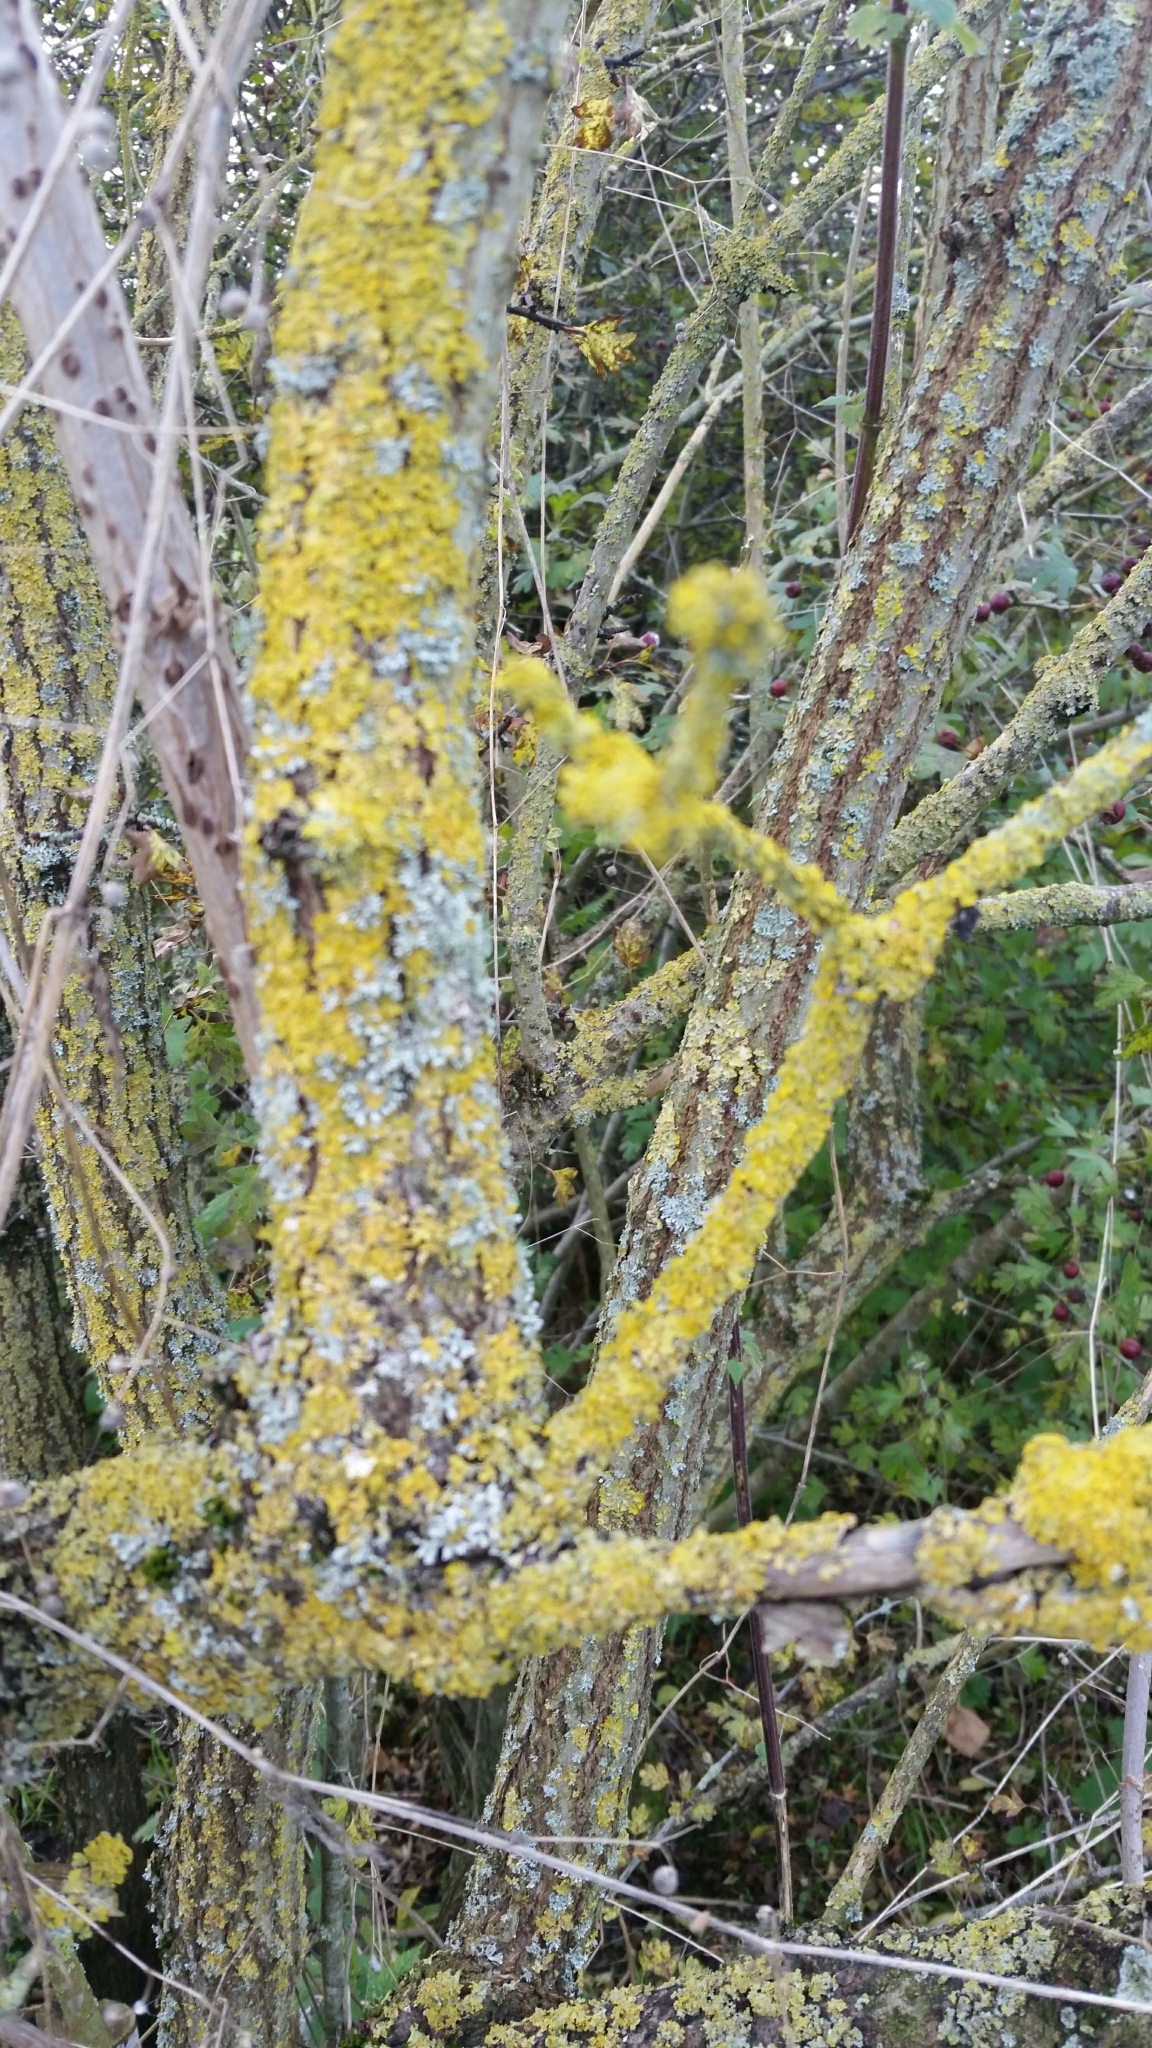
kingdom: Fungi
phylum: Ascomycota
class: Lecanoromycetes
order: Teloschistales
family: Teloschistaceae
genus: Xanthoria
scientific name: Xanthoria parietina
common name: Common orange lichen
